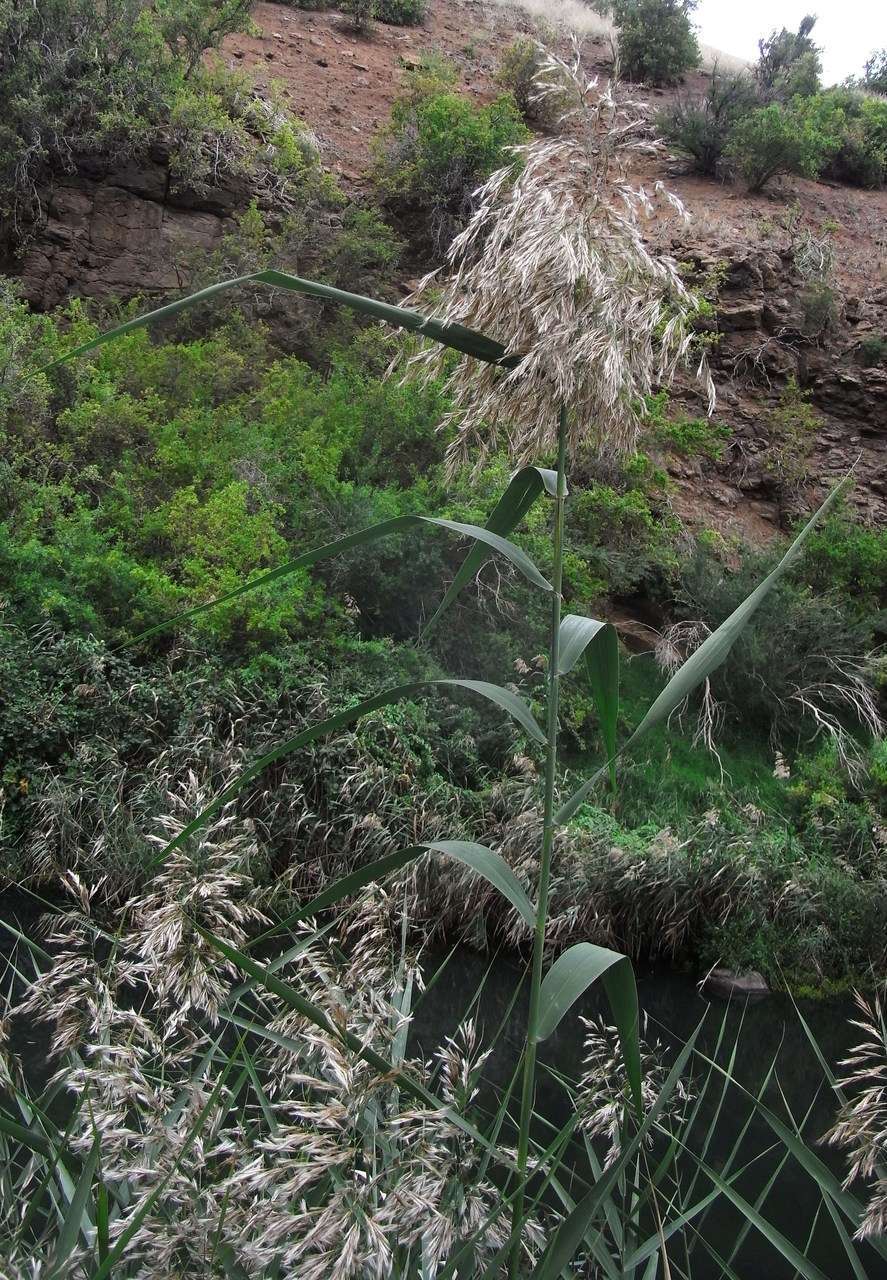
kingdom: Plantae
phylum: Tracheophyta
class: Liliopsida
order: Poales
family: Poaceae
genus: Phragmites
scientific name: Phragmites australis
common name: Common reed
